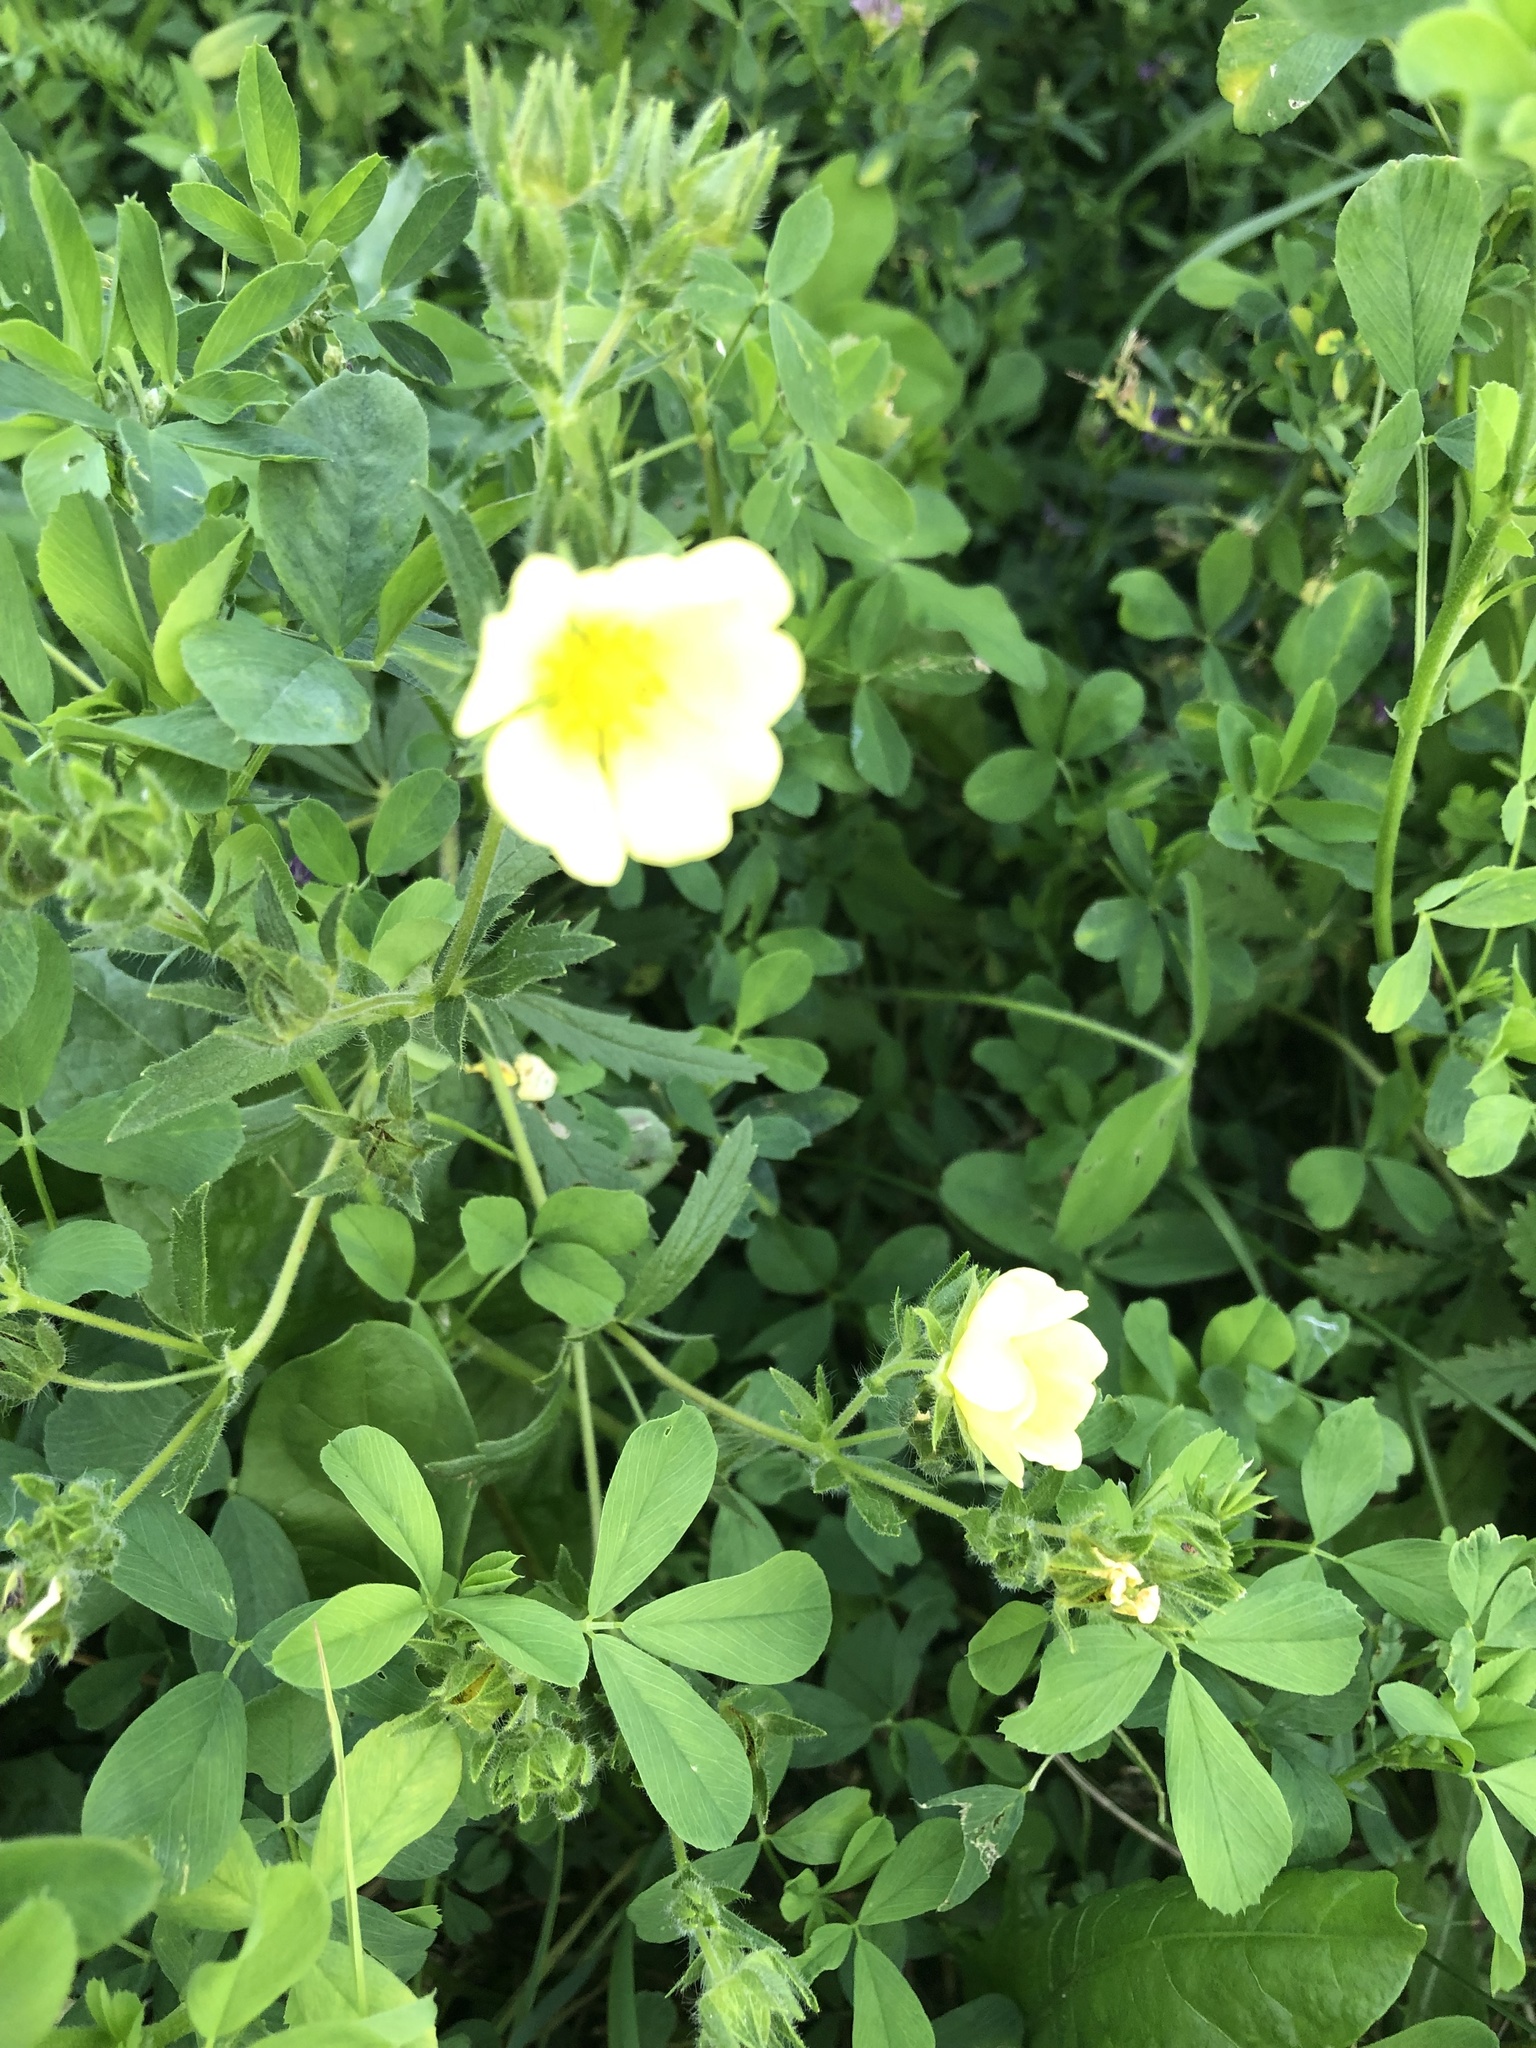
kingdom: Plantae
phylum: Tracheophyta
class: Magnoliopsida
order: Rosales
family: Rosaceae
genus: Potentilla
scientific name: Potentilla recta
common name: Sulphur cinquefoil
